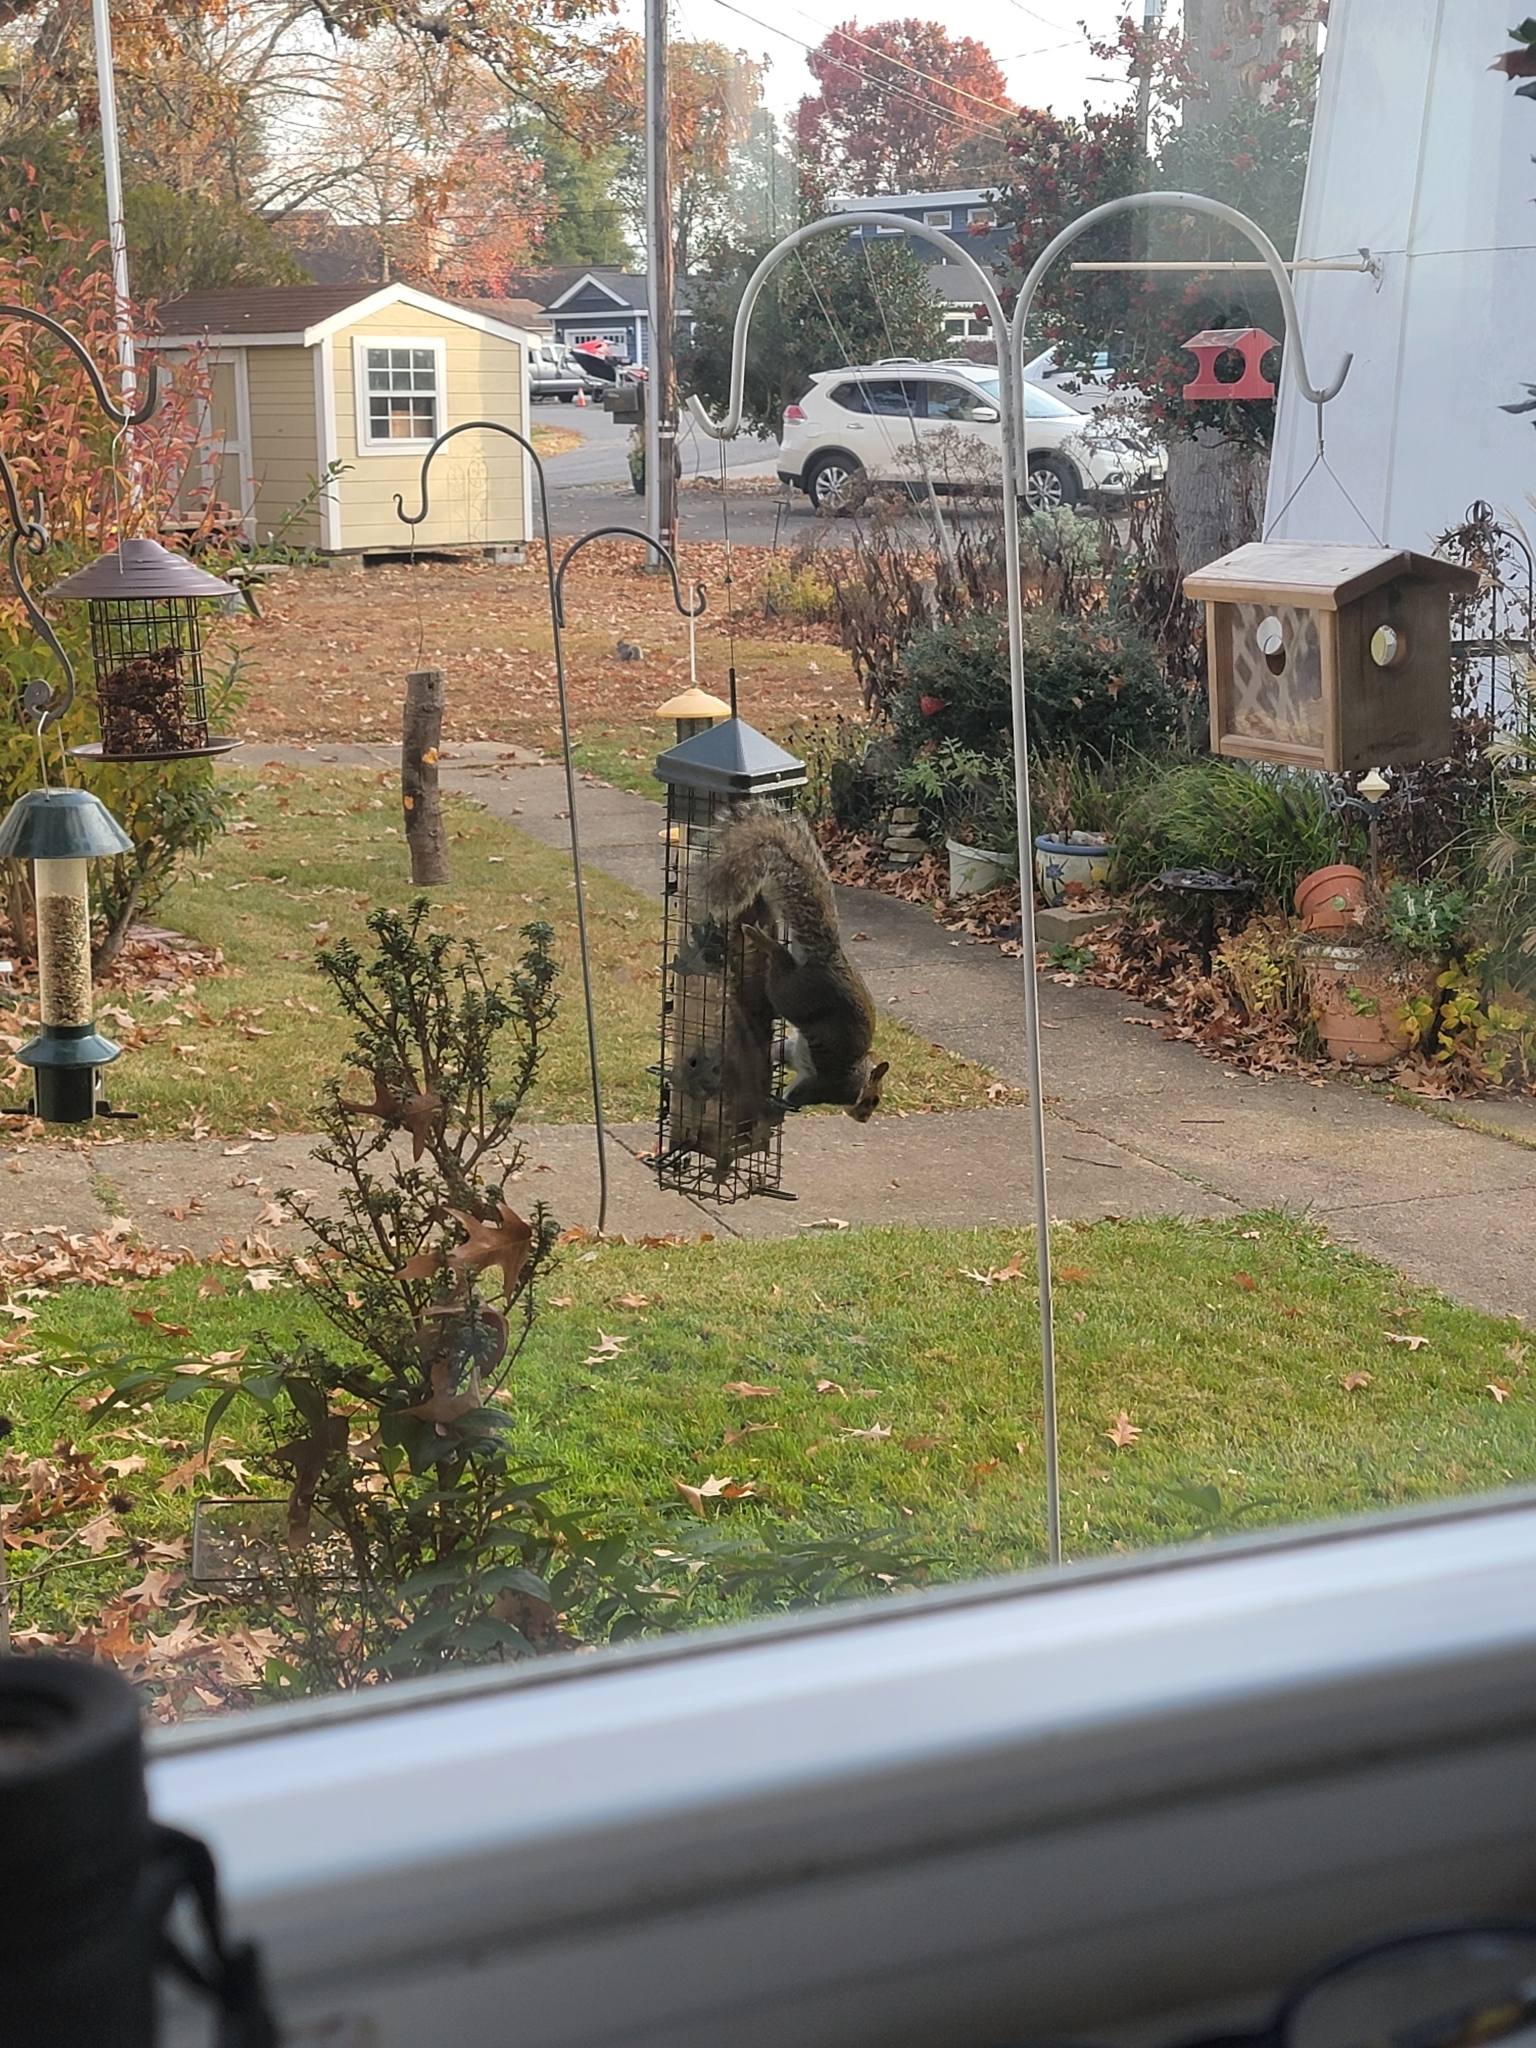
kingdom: Animalia
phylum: Chordata
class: Mammalia
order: Rodentia
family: Sciuridae
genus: Sciurus
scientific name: Sciurus carolinensis
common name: Eastern gray squirrel
